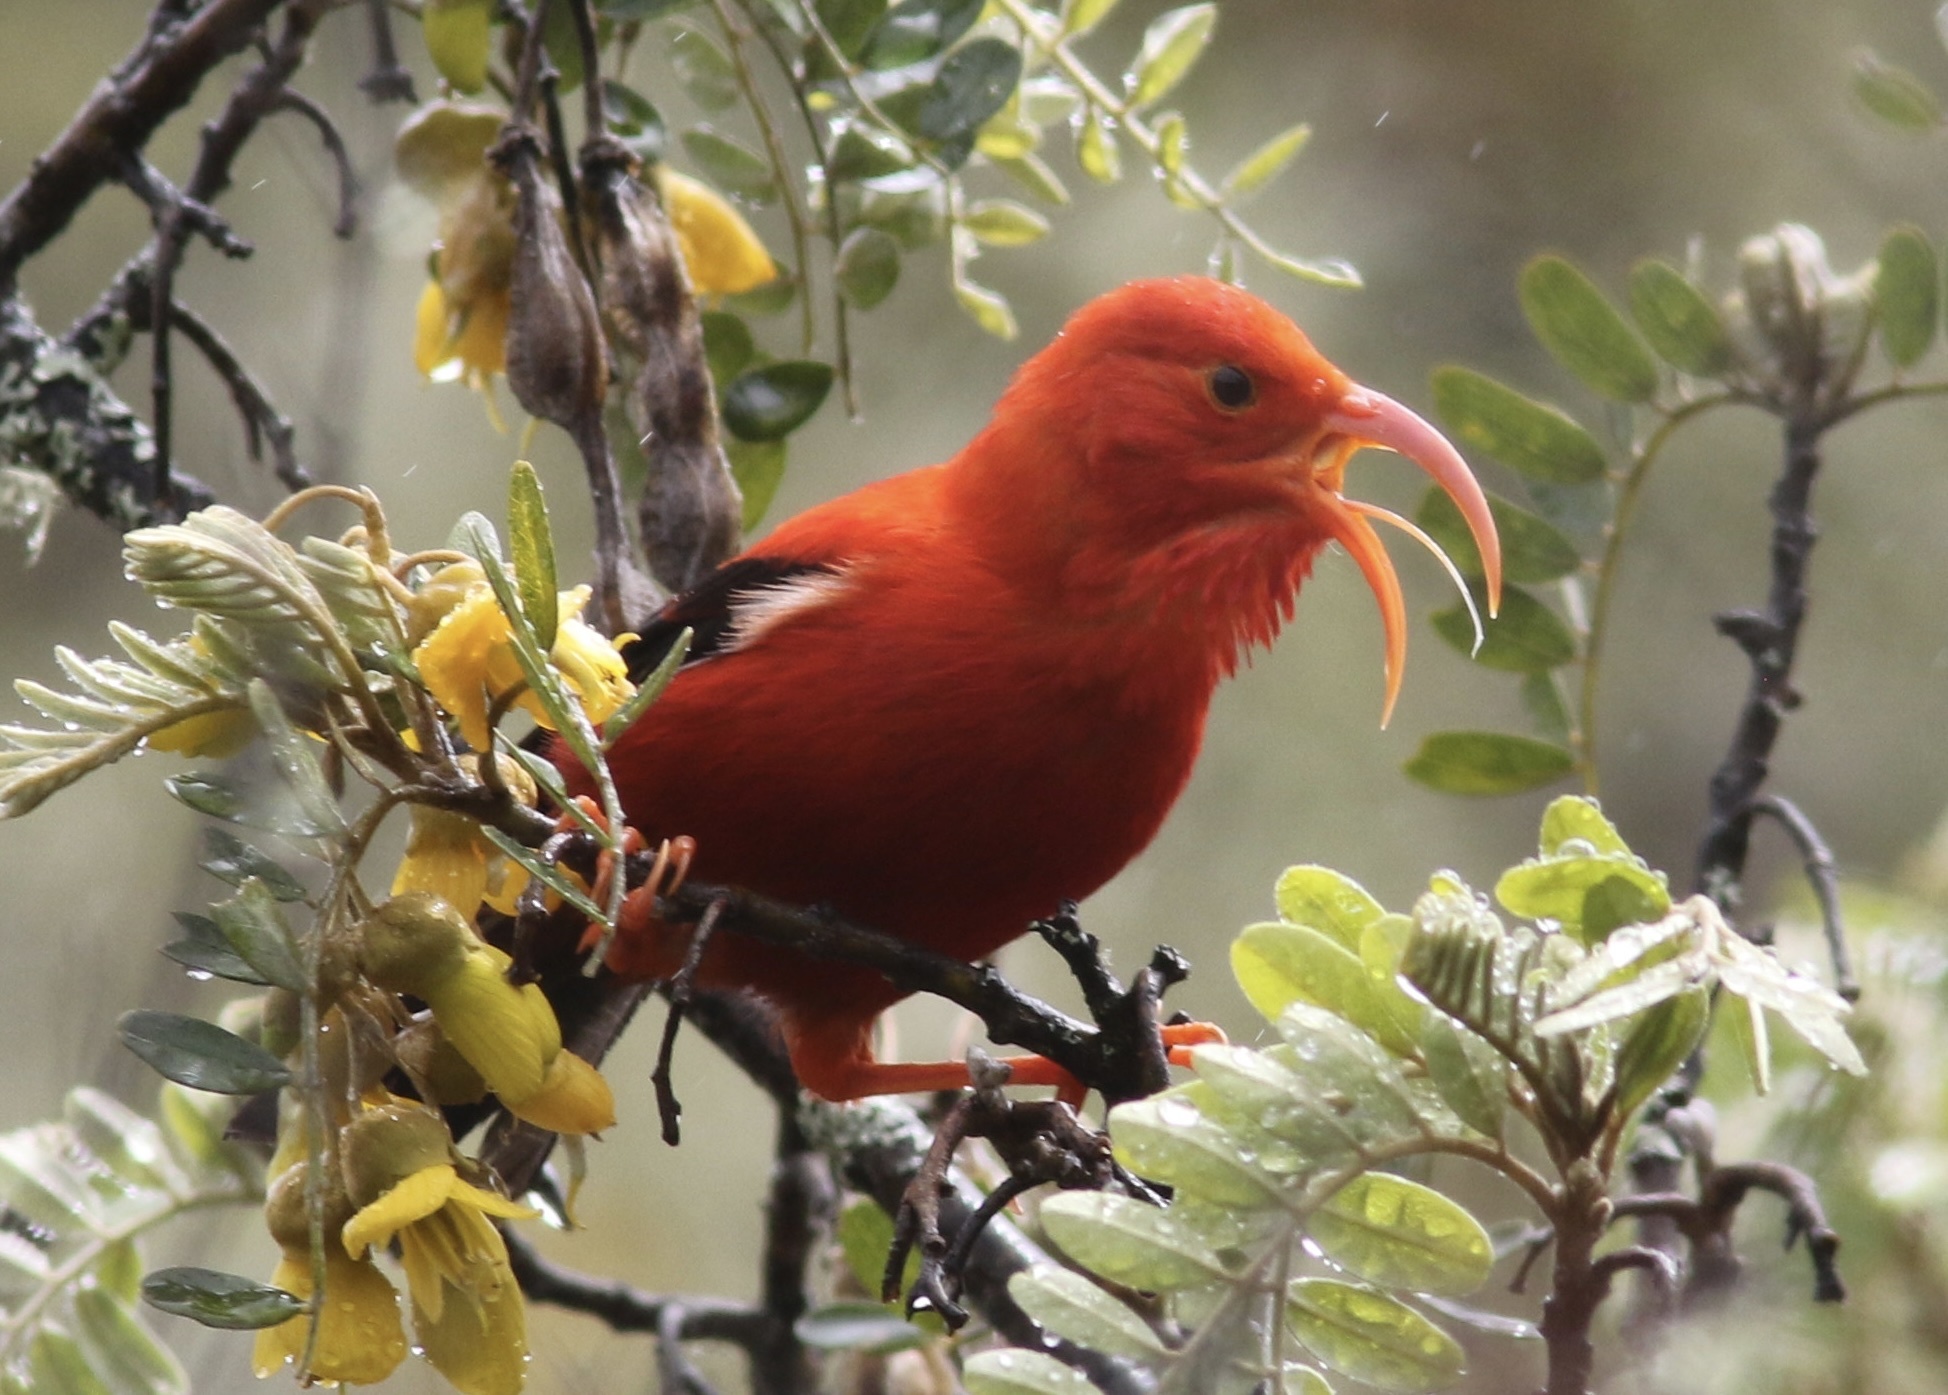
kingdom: Animalia
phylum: Chordata
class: Aves
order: Passeriformes
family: Fringillidae
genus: Vestiaria
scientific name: Vestiaria coccinea
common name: Iiwi
